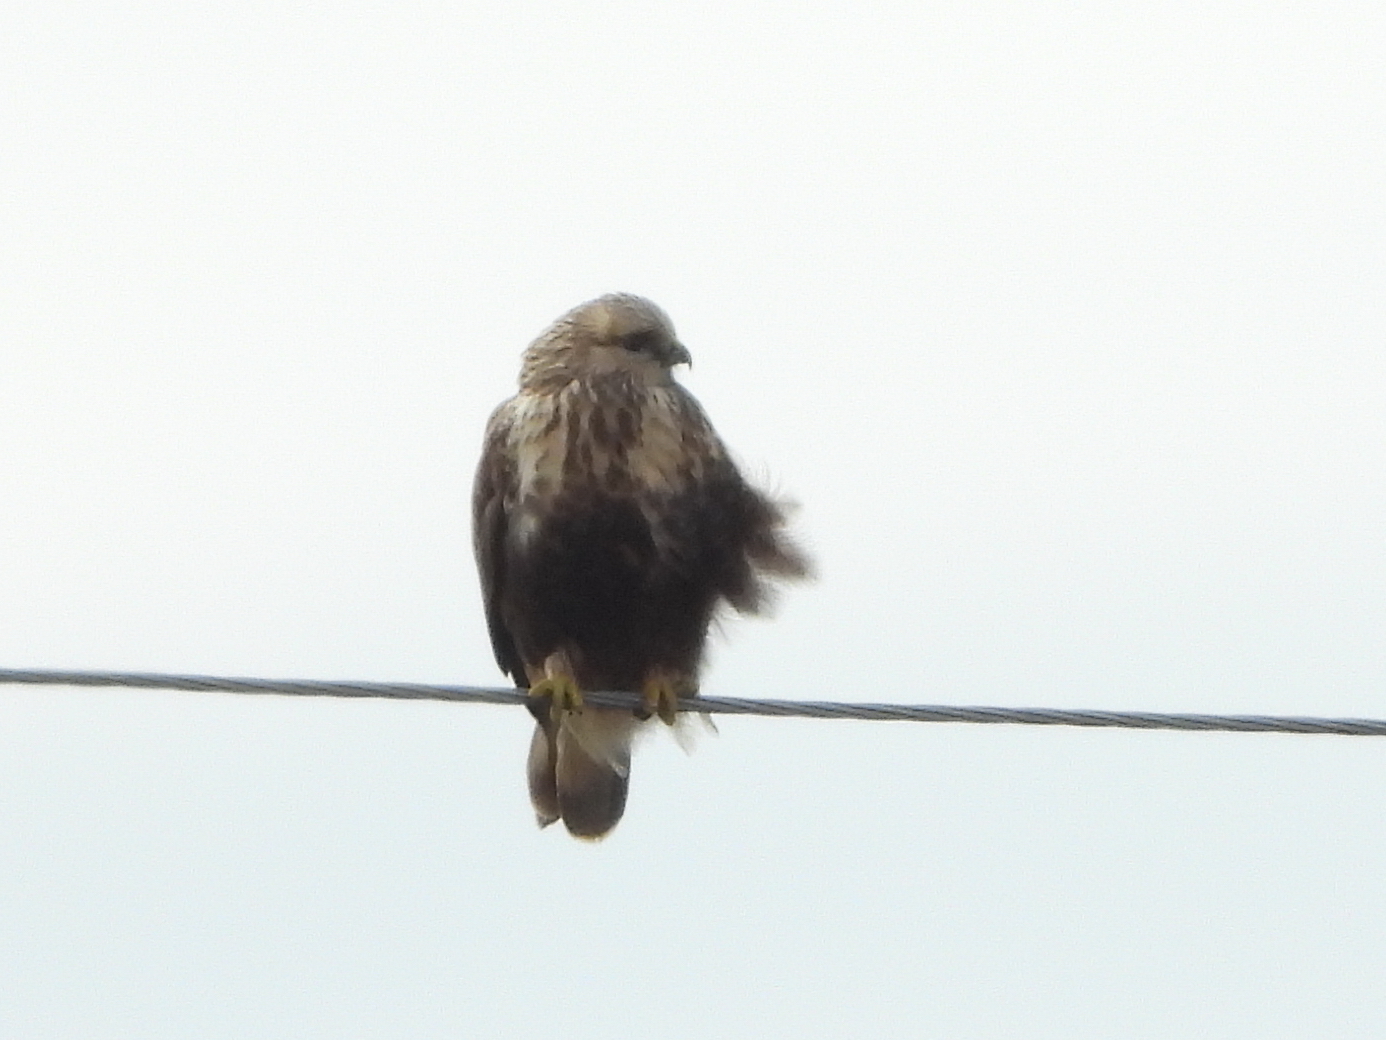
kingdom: Animalia
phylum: Chordata
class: Aves
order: Accipitriformes
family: Accipitridae
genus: Buteo
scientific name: Buteo lagopus
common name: Rough-legged buzzard
